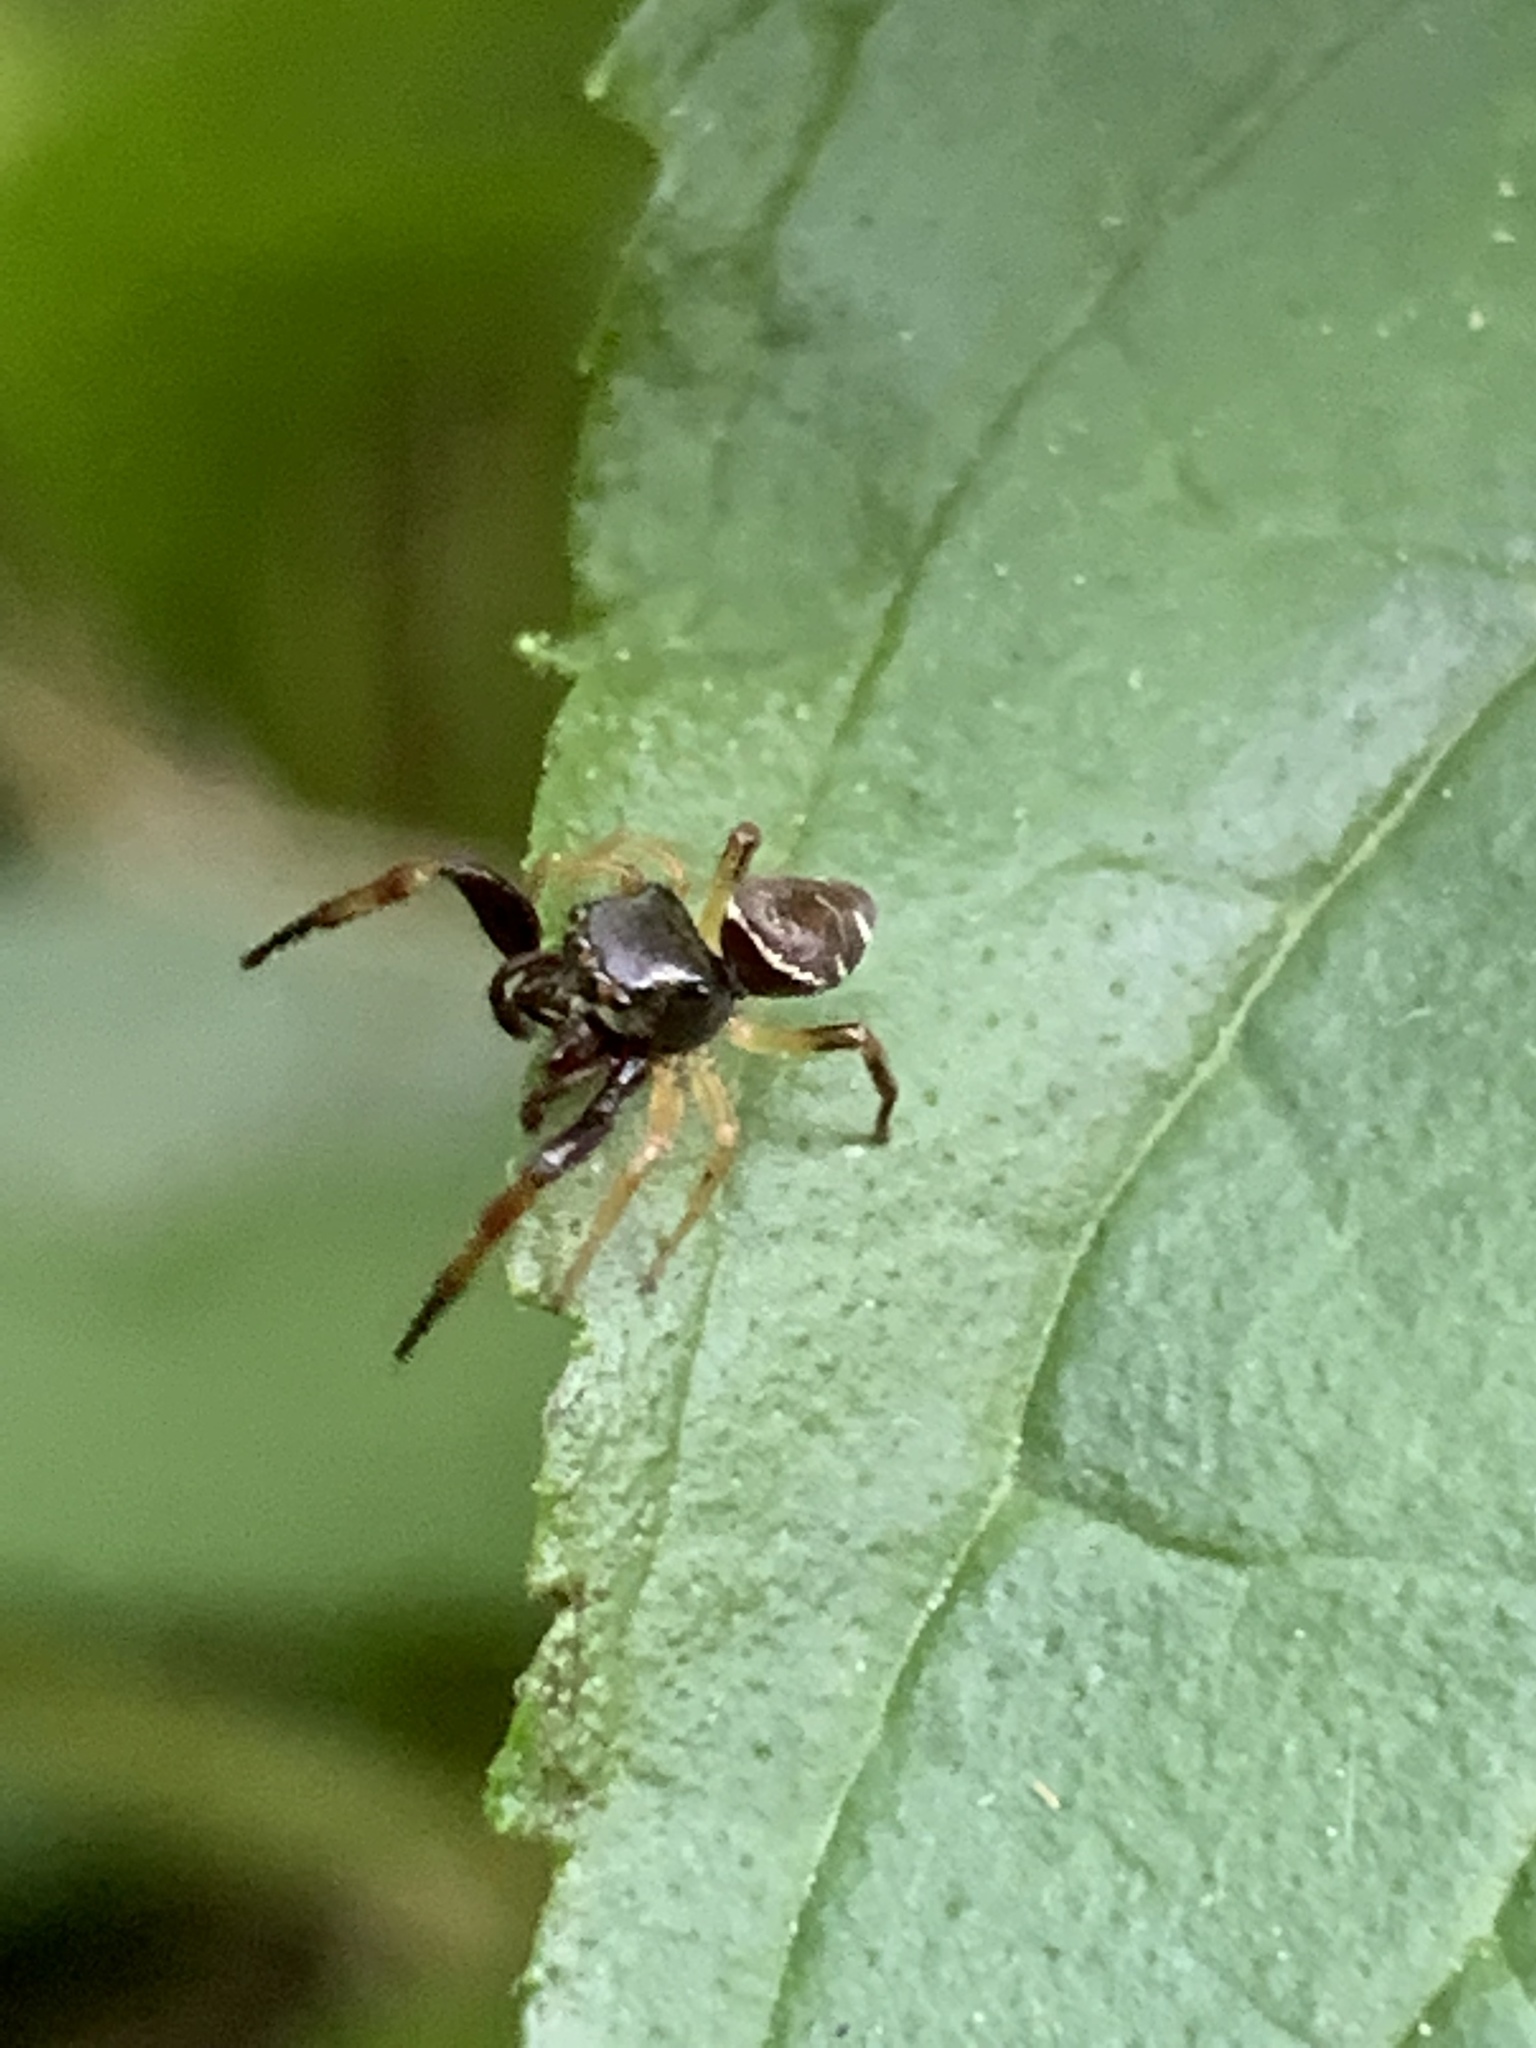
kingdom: Animalia
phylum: Arthropoda
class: Arachnida
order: Araneae
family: Salticidae
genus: Zygoballus
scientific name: Zygoballus rufipes
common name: Jumping spiders
